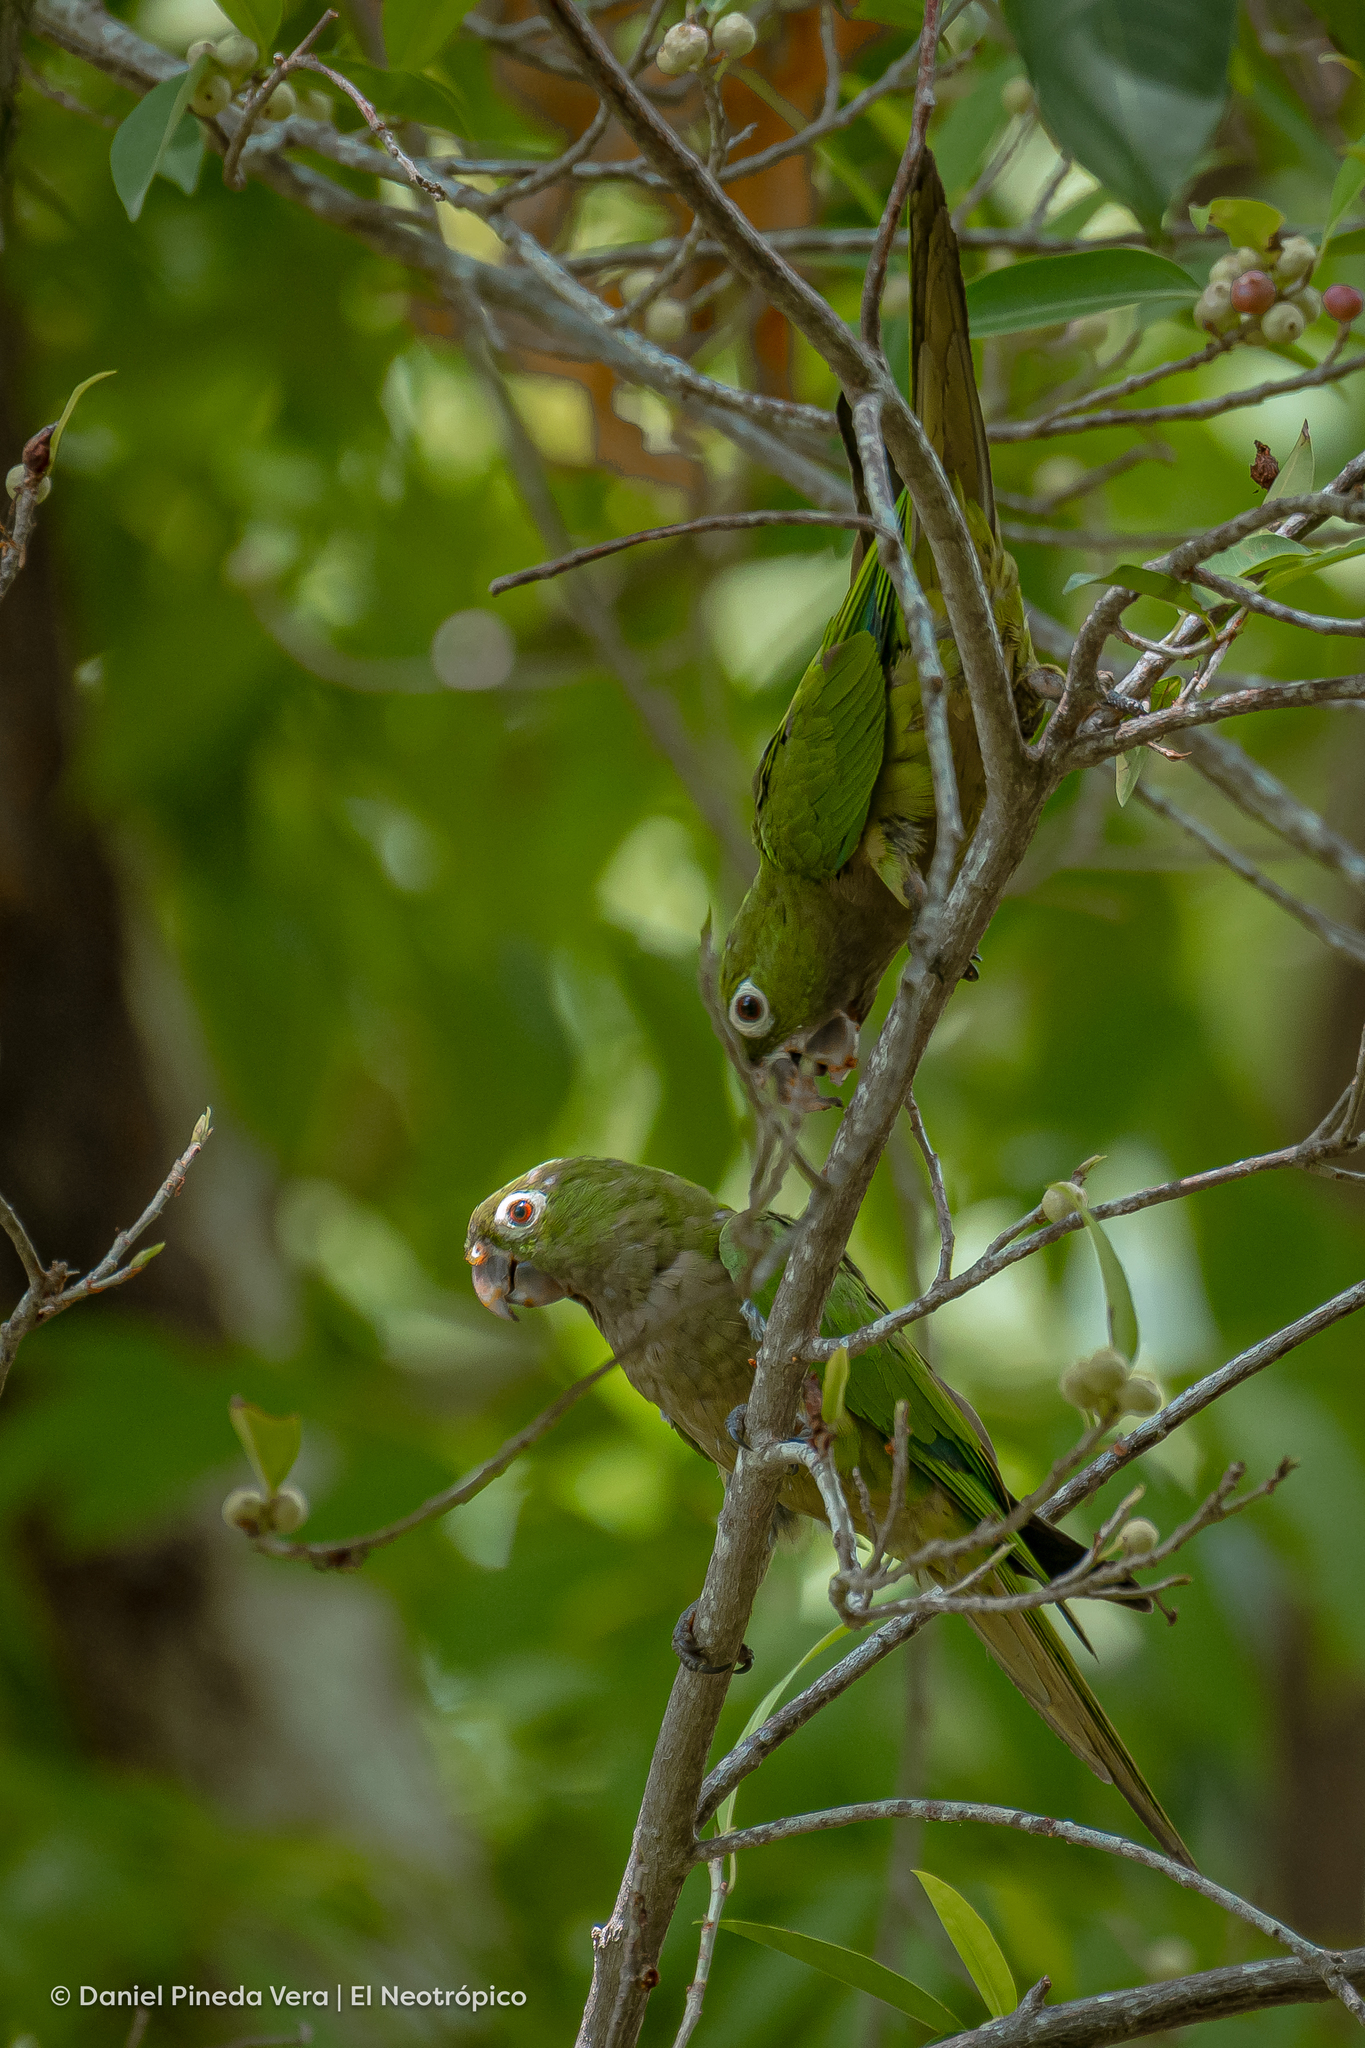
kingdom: Animalia
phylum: Chordata
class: Aves
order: Psittaciformes
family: Psittacidae
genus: Aratinga
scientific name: Aratinga nana
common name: Olive-throated parakeet
